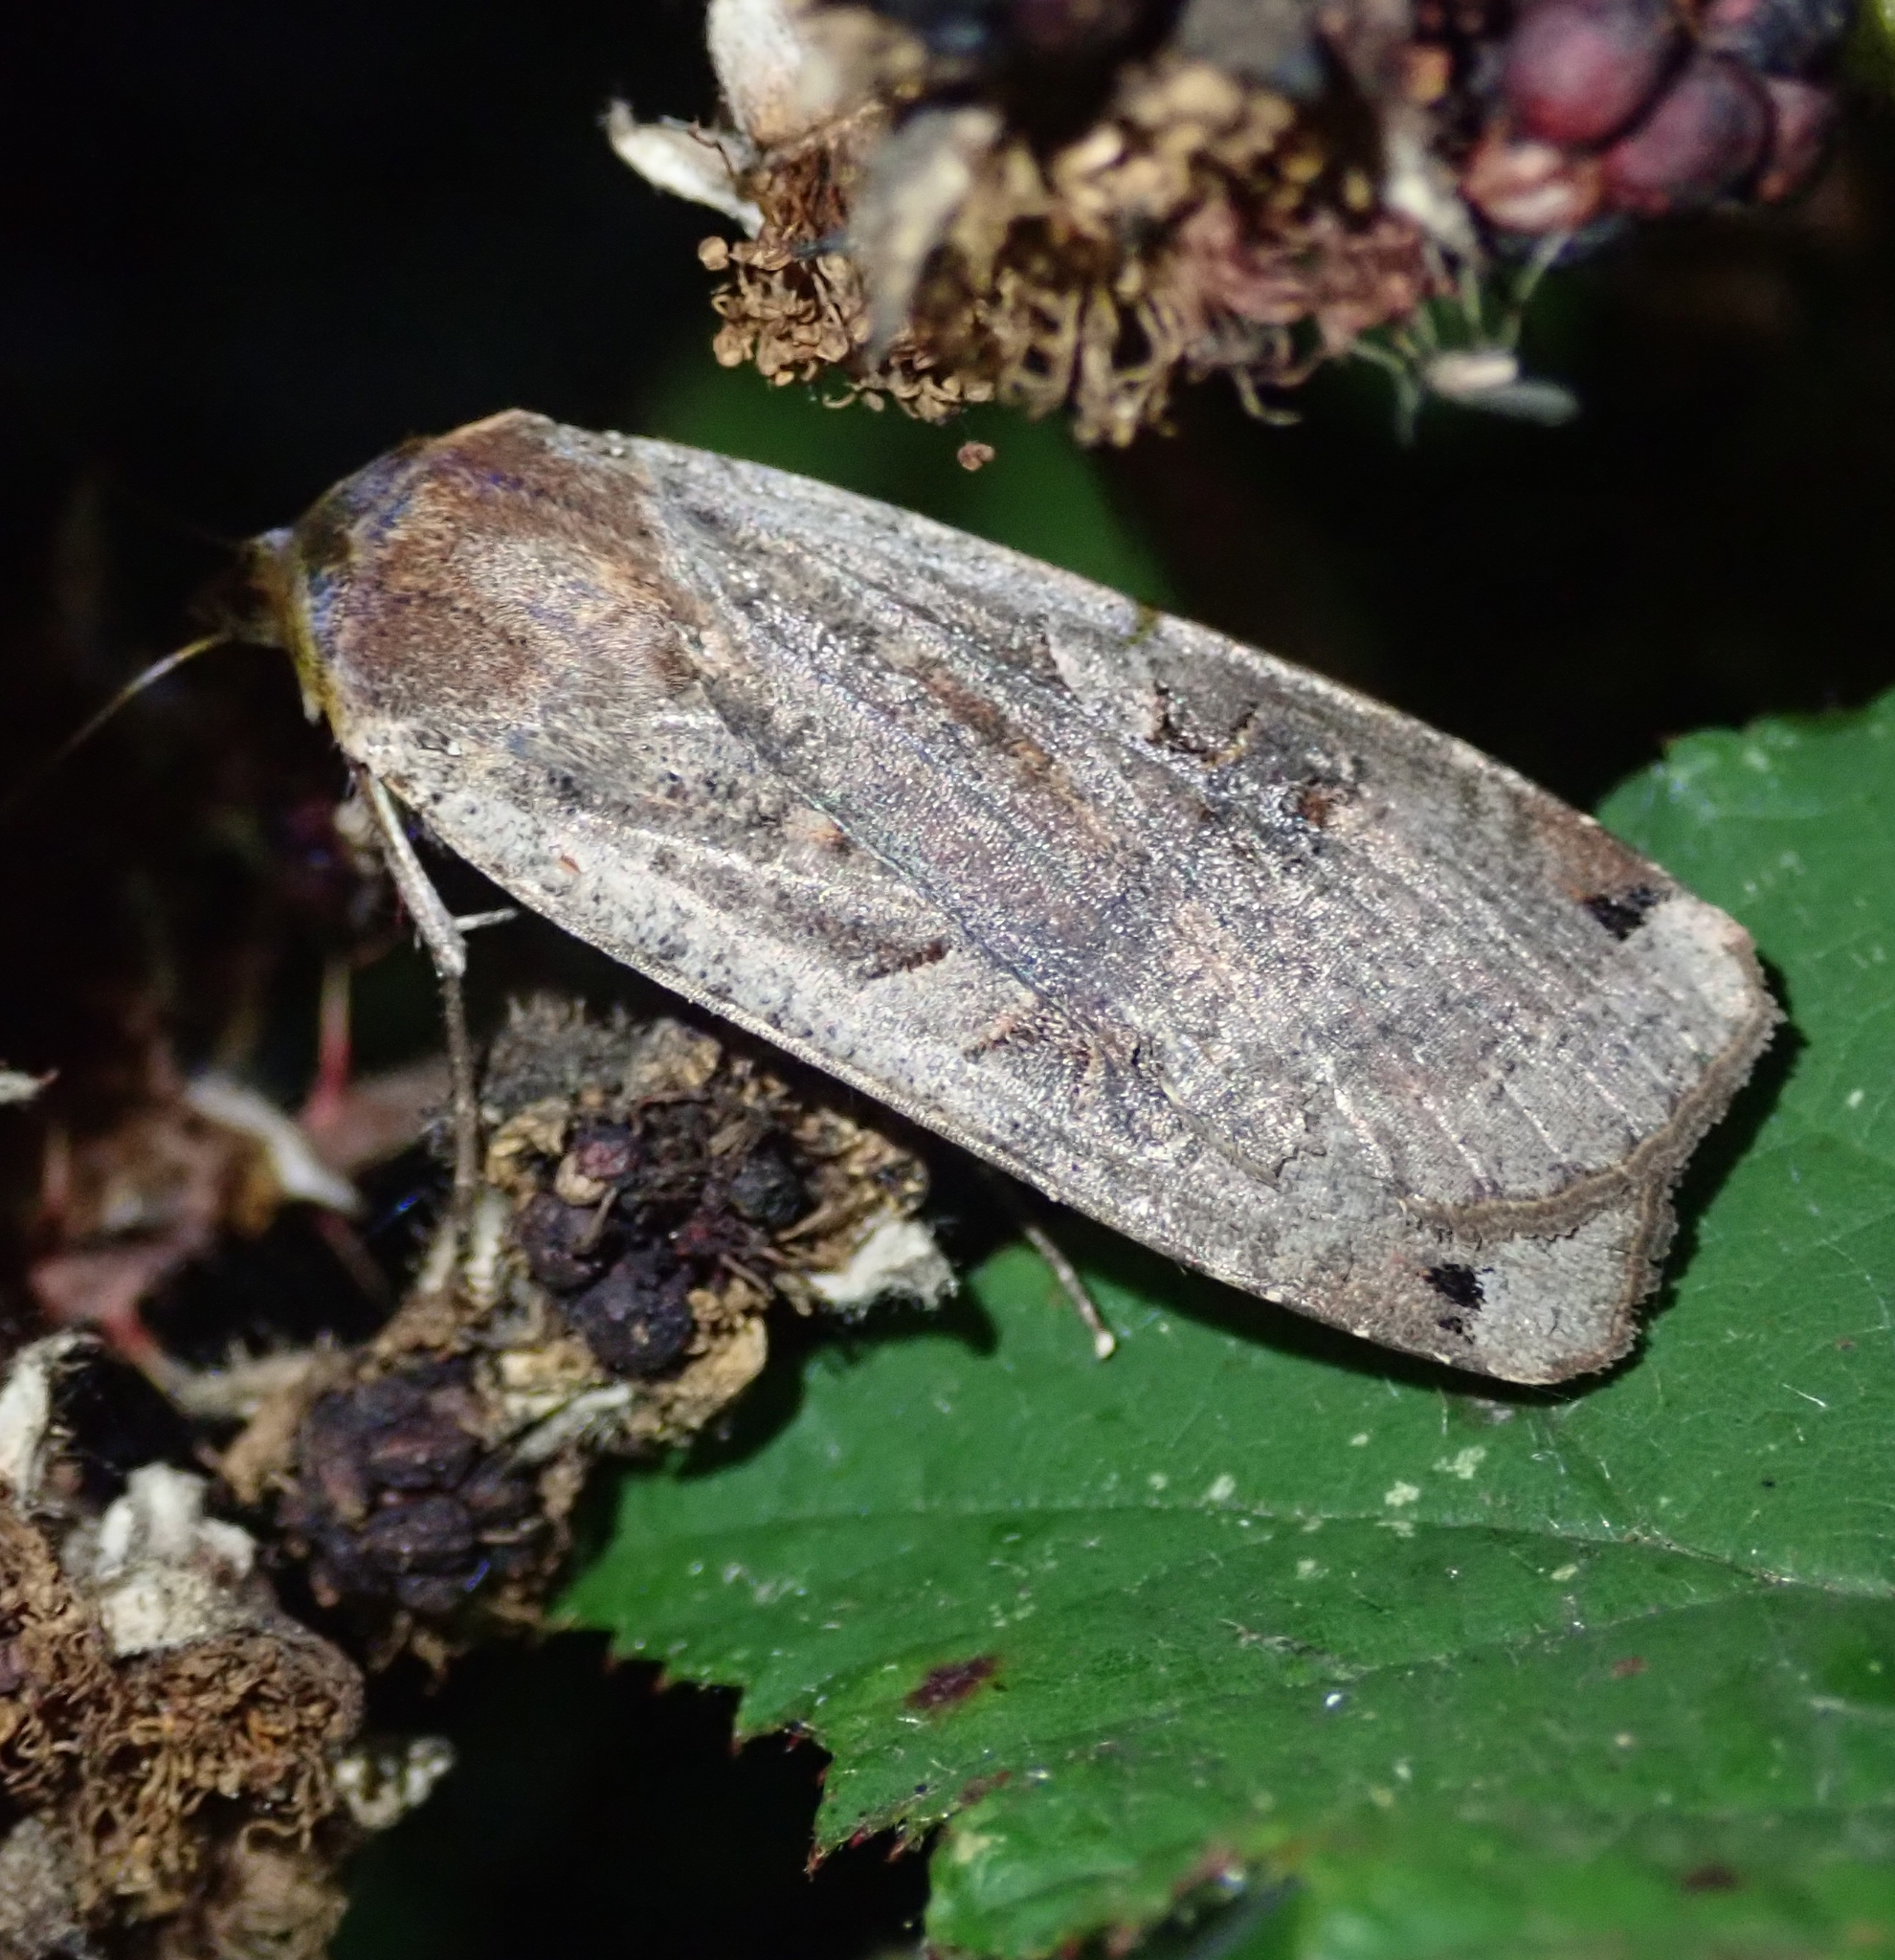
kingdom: Animalia
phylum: Arthropoda
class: Insecta
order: Lepidoptera
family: Noctuidae
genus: Noctua
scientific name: Noctua pronuba
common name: Large yellow underwing
